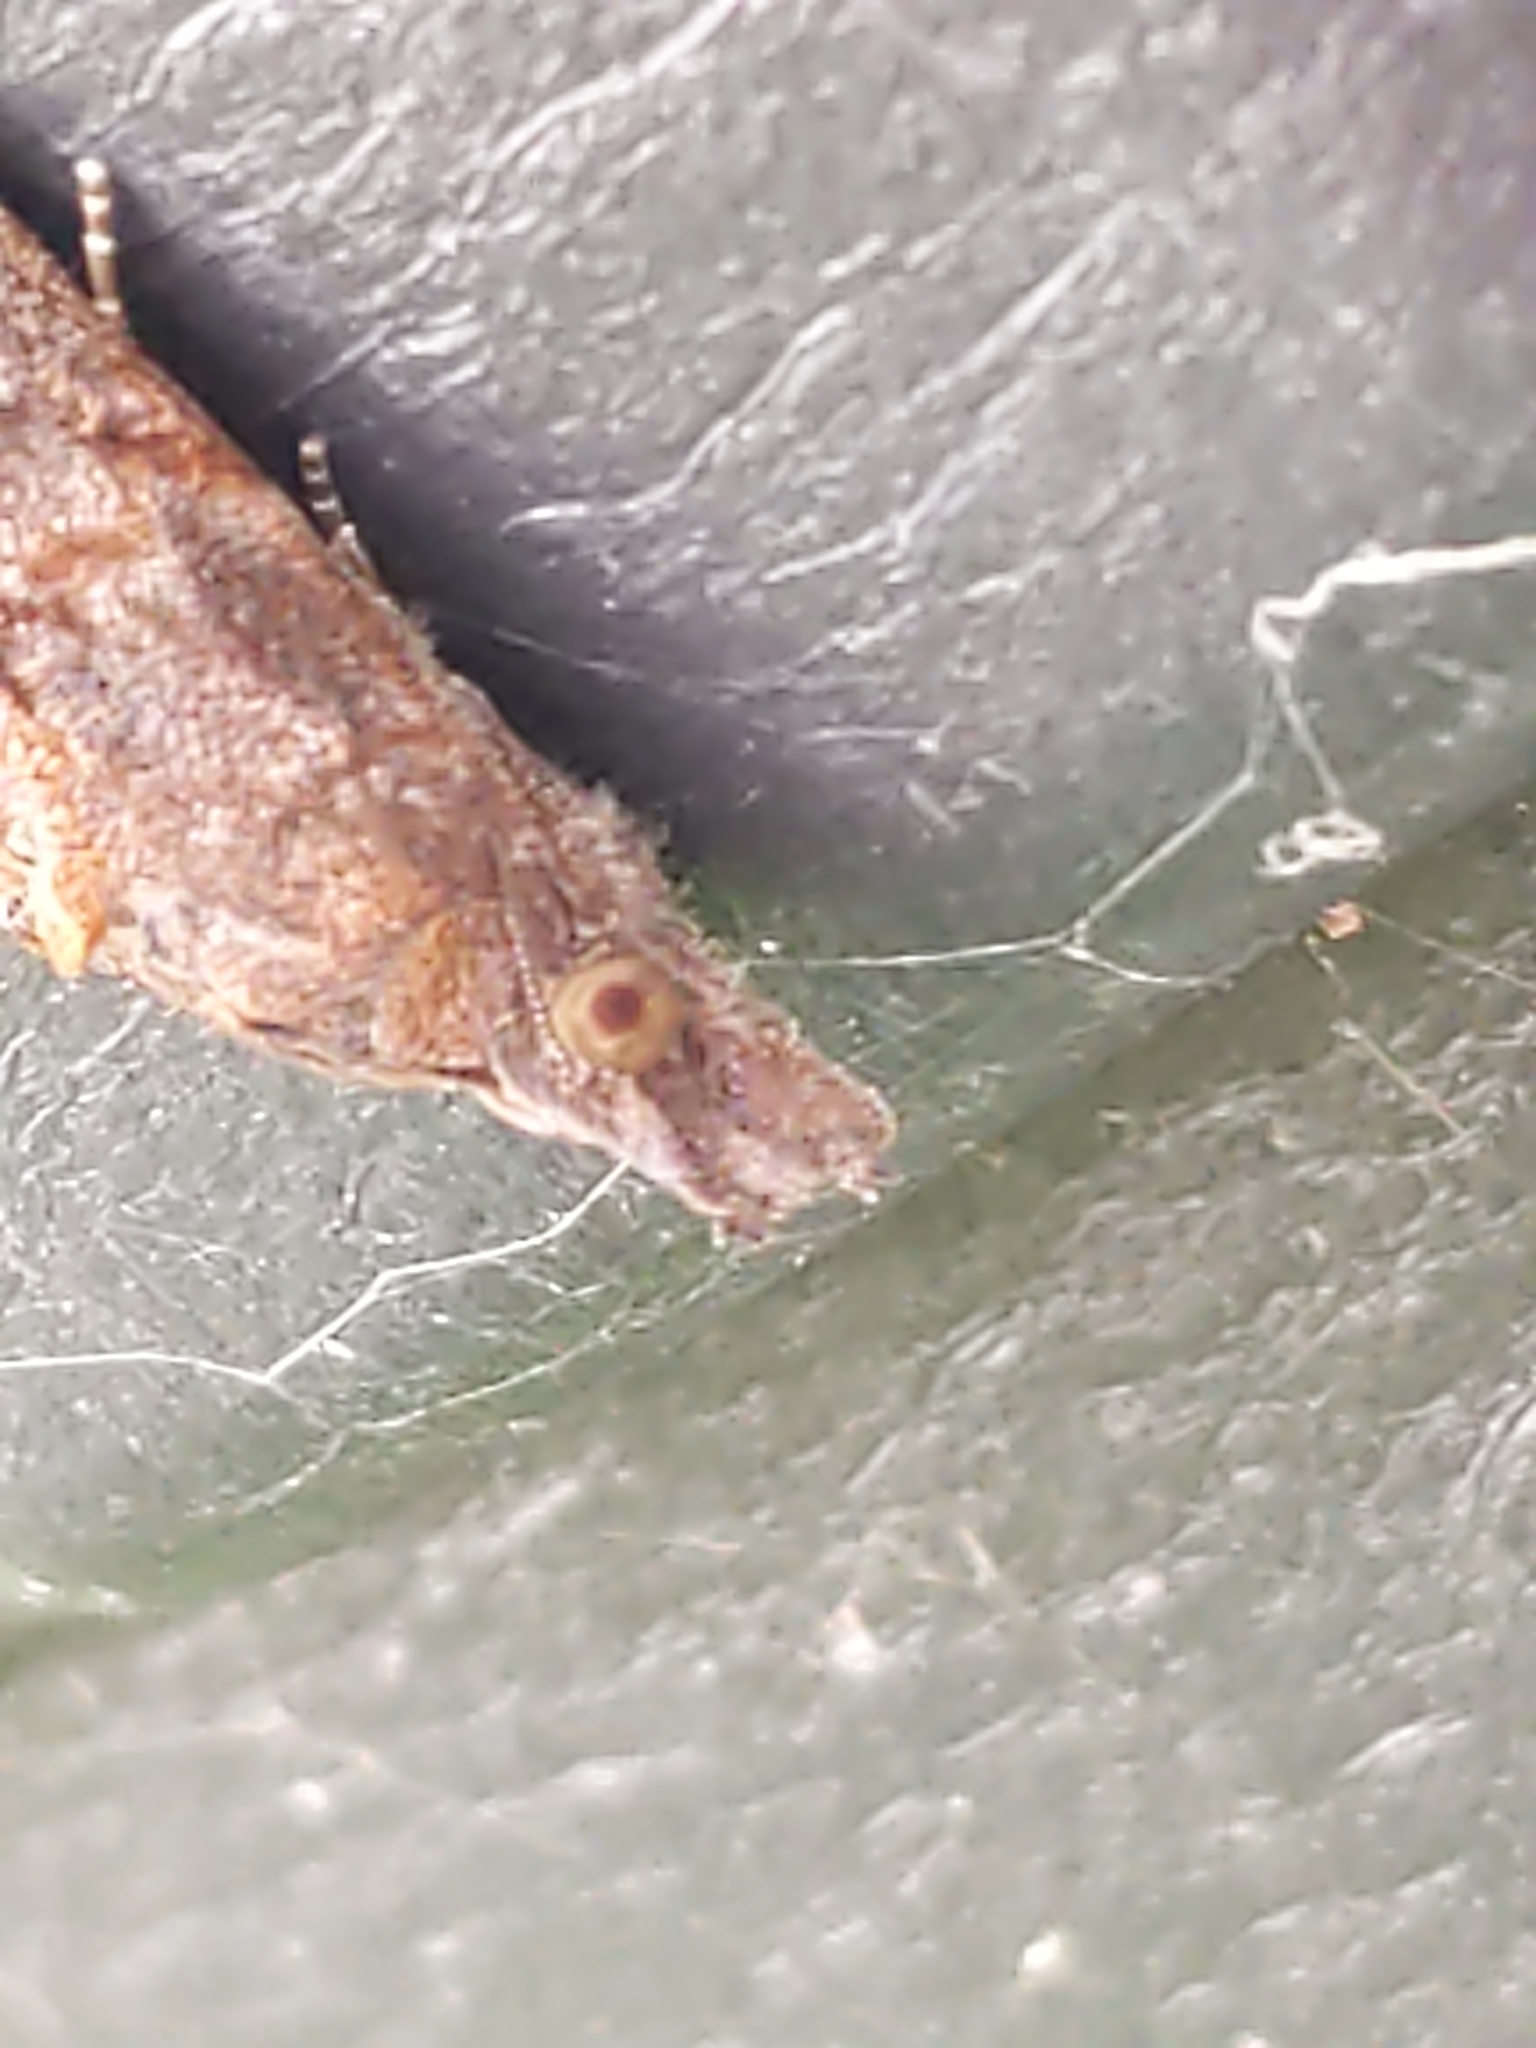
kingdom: Animalia
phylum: Arthropoda
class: Insecta
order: Lepidoptera
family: Erebidae
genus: Hypena
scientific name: Hypena scabra
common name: Green cloverworm
